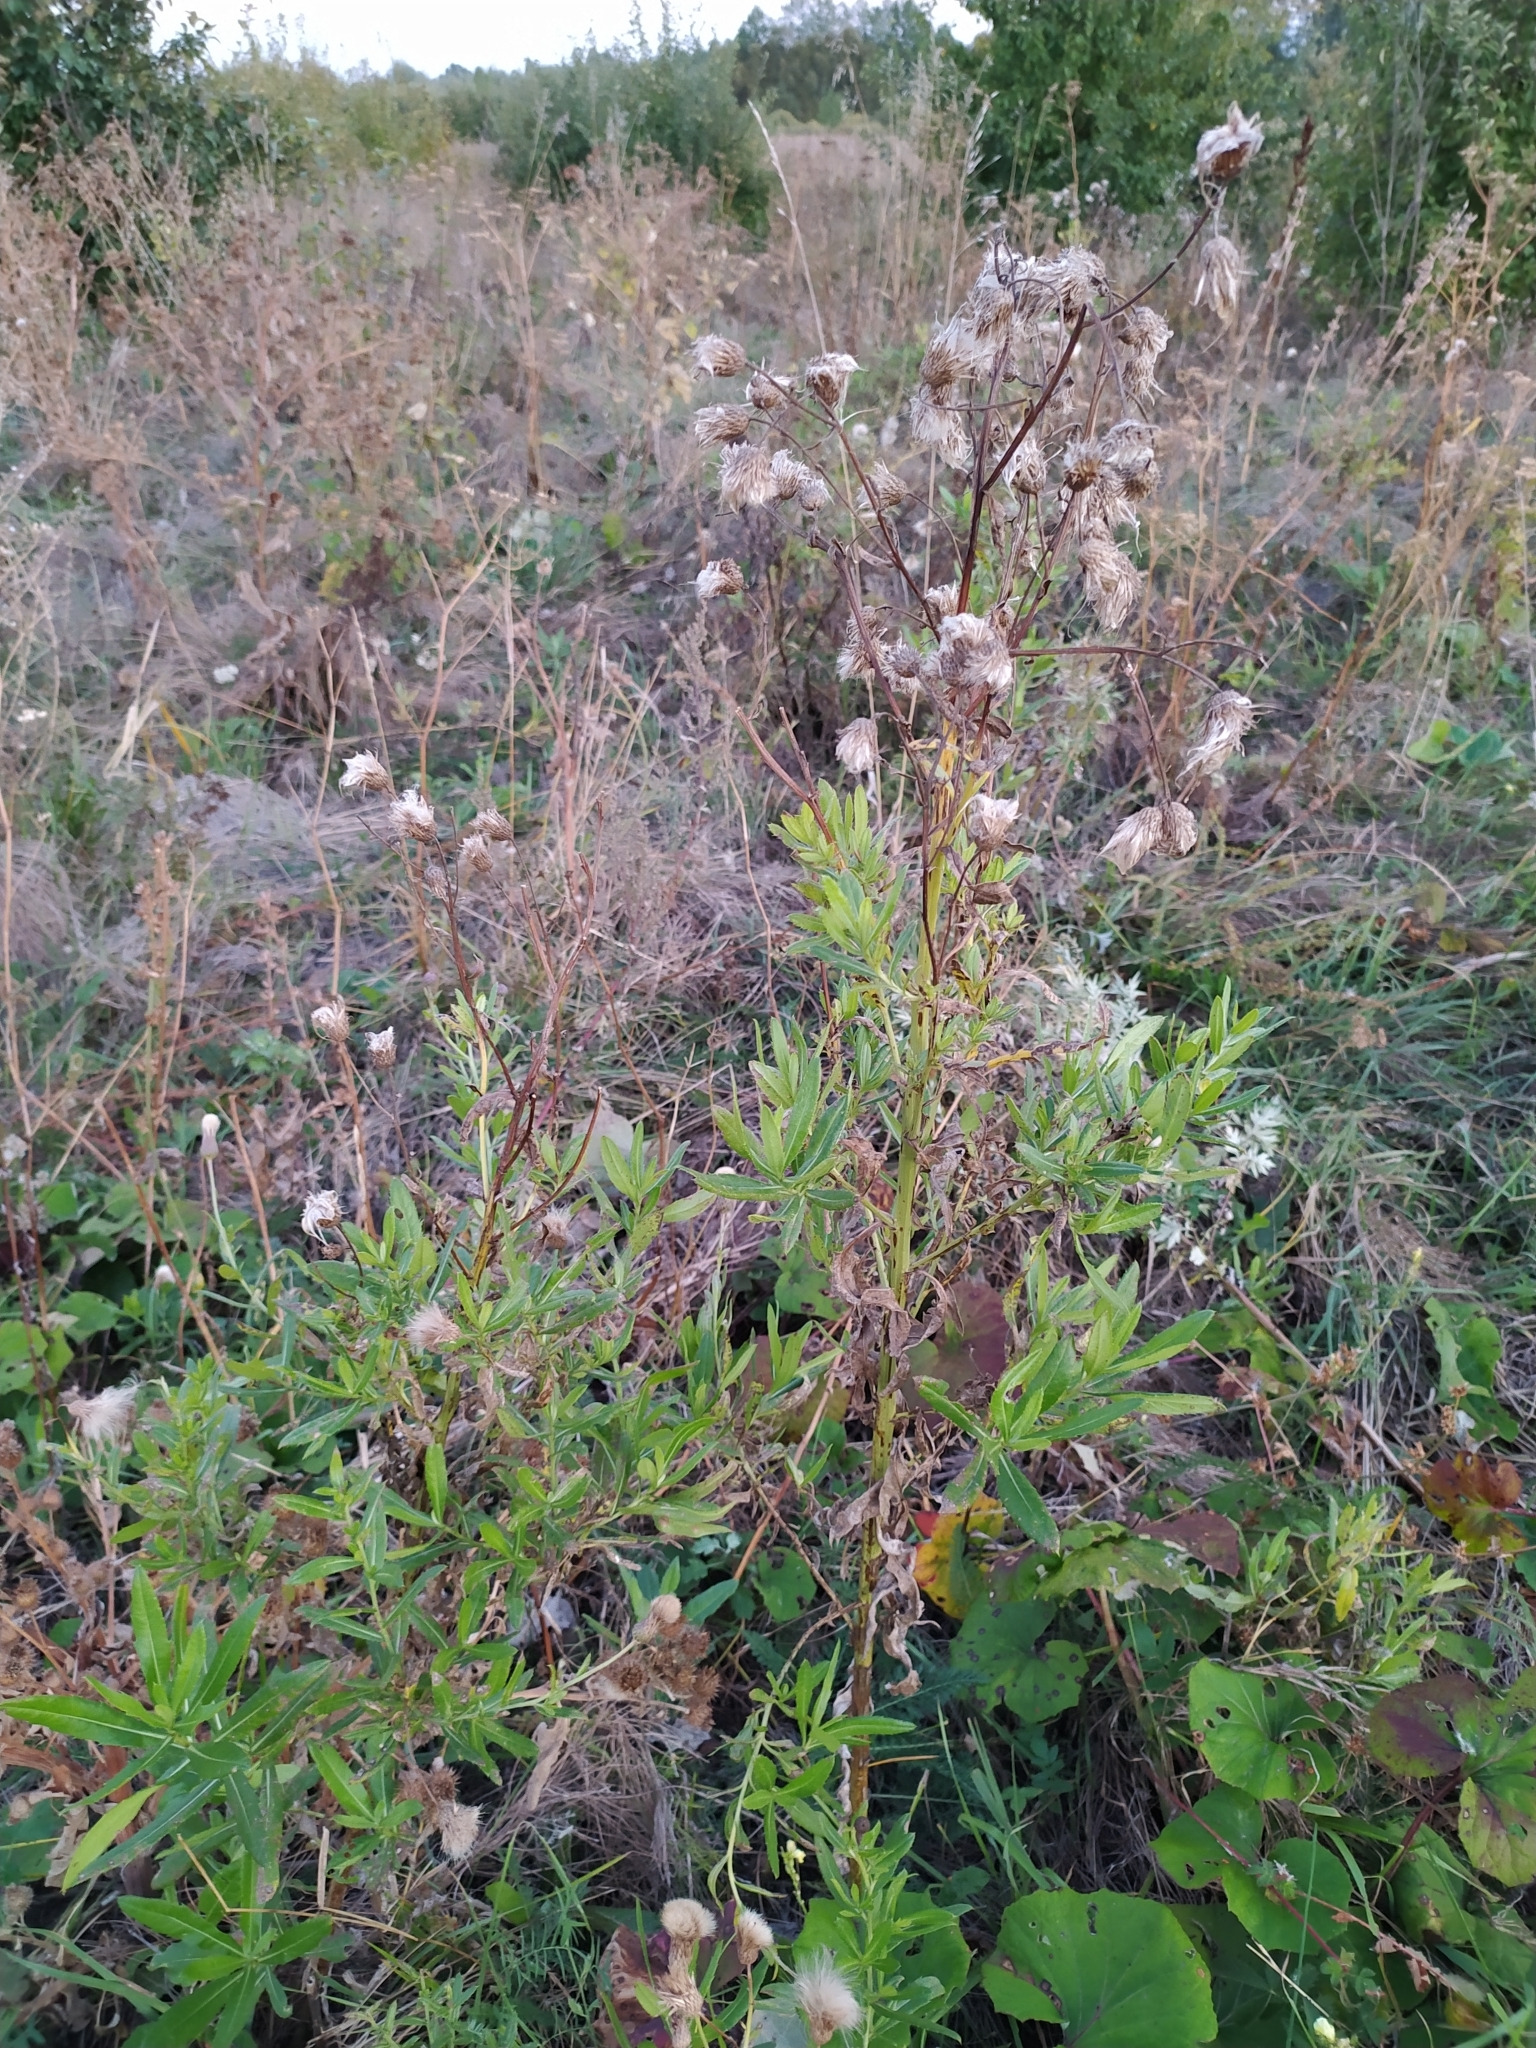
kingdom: Plantae
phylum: Tracheophyta
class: Magnoliopsida
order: Asterales
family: Asteraceae
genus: Cirsium
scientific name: Cirsium arvense
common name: Creeping thistle
